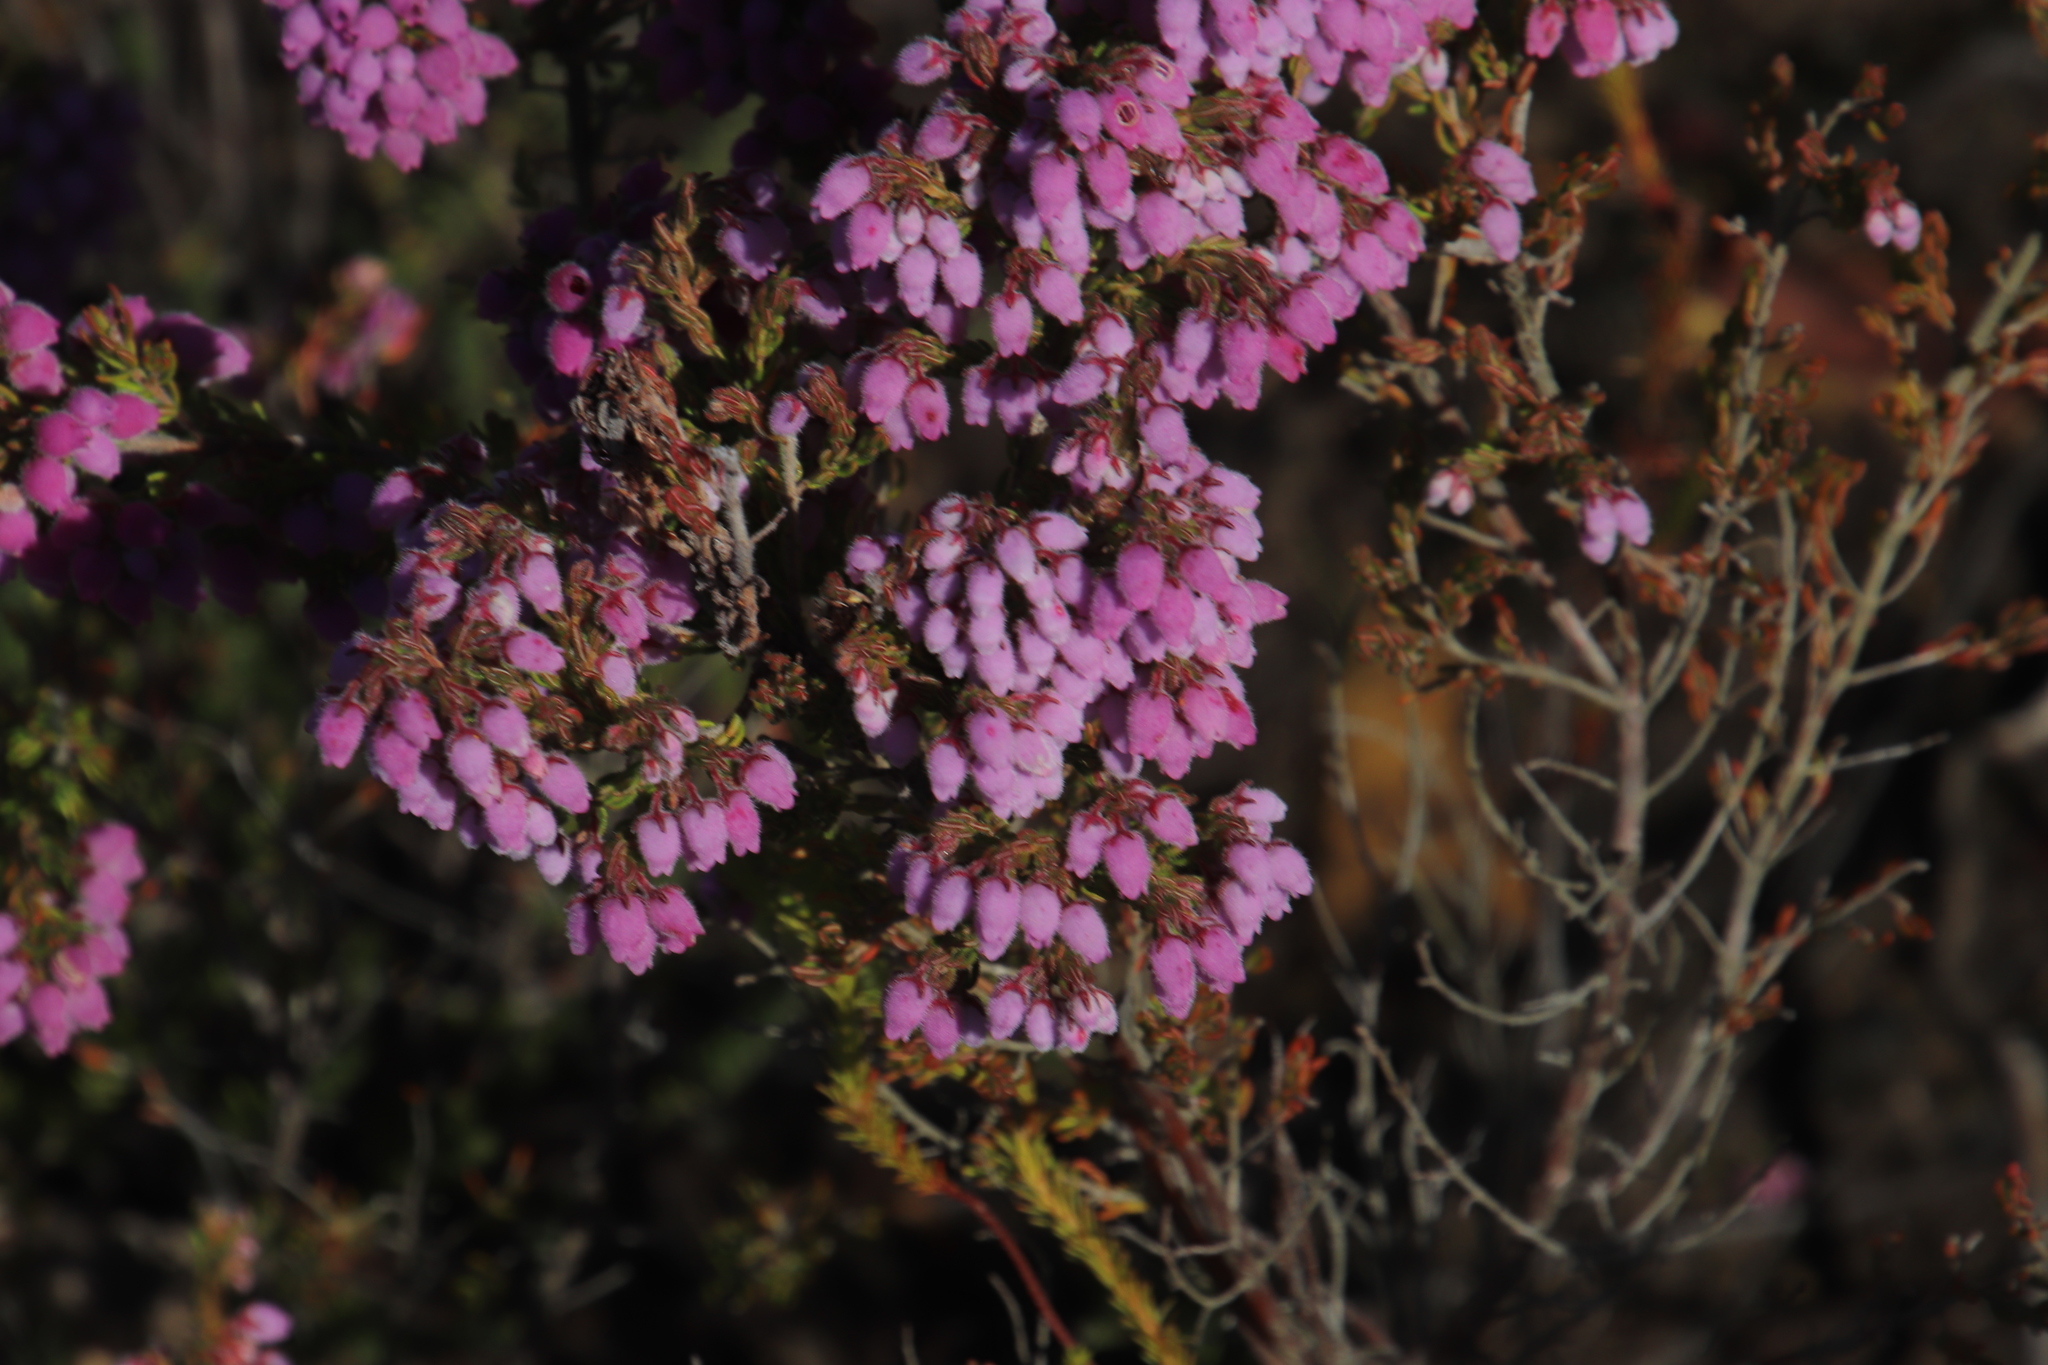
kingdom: Plantae
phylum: Tracheophyta
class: Magnoliopsida
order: Ericales
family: Ericaceae
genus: Erica
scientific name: Erica hirtiflora
